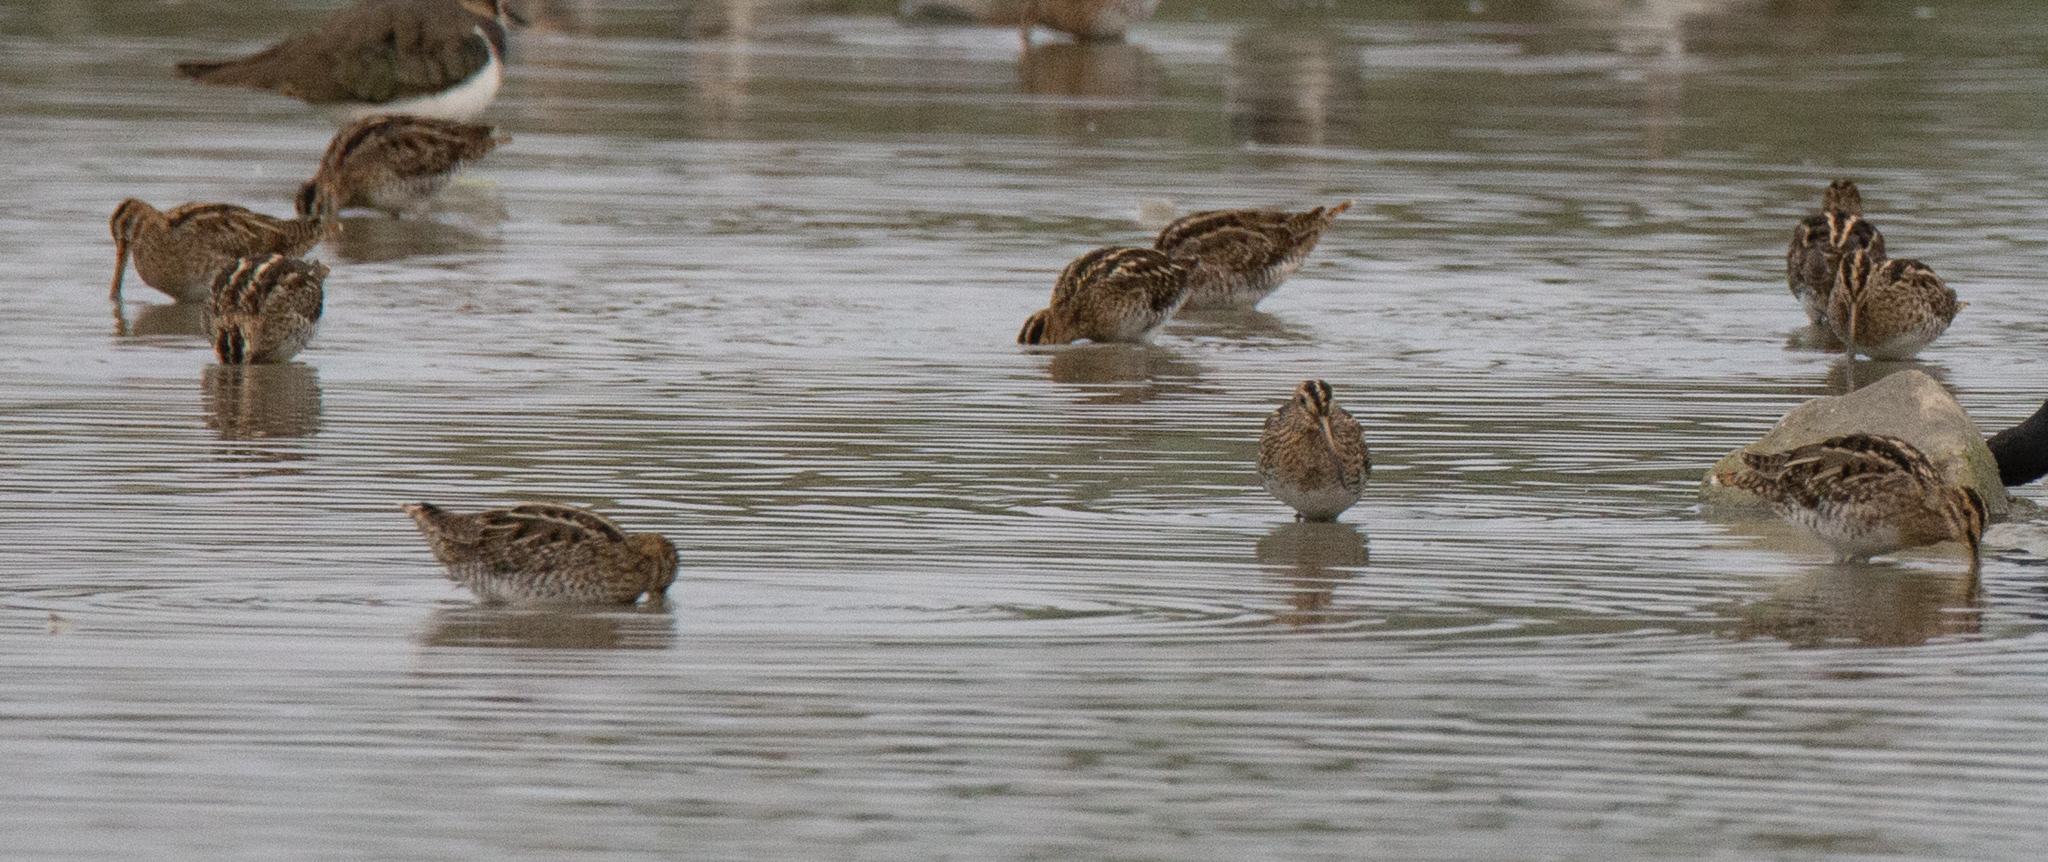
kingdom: Animalia
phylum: Chordata
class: Aves
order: Charadriiformes
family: Scolopacidae
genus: Gallinago
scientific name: Gallinago gallinago
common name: Common snipe
